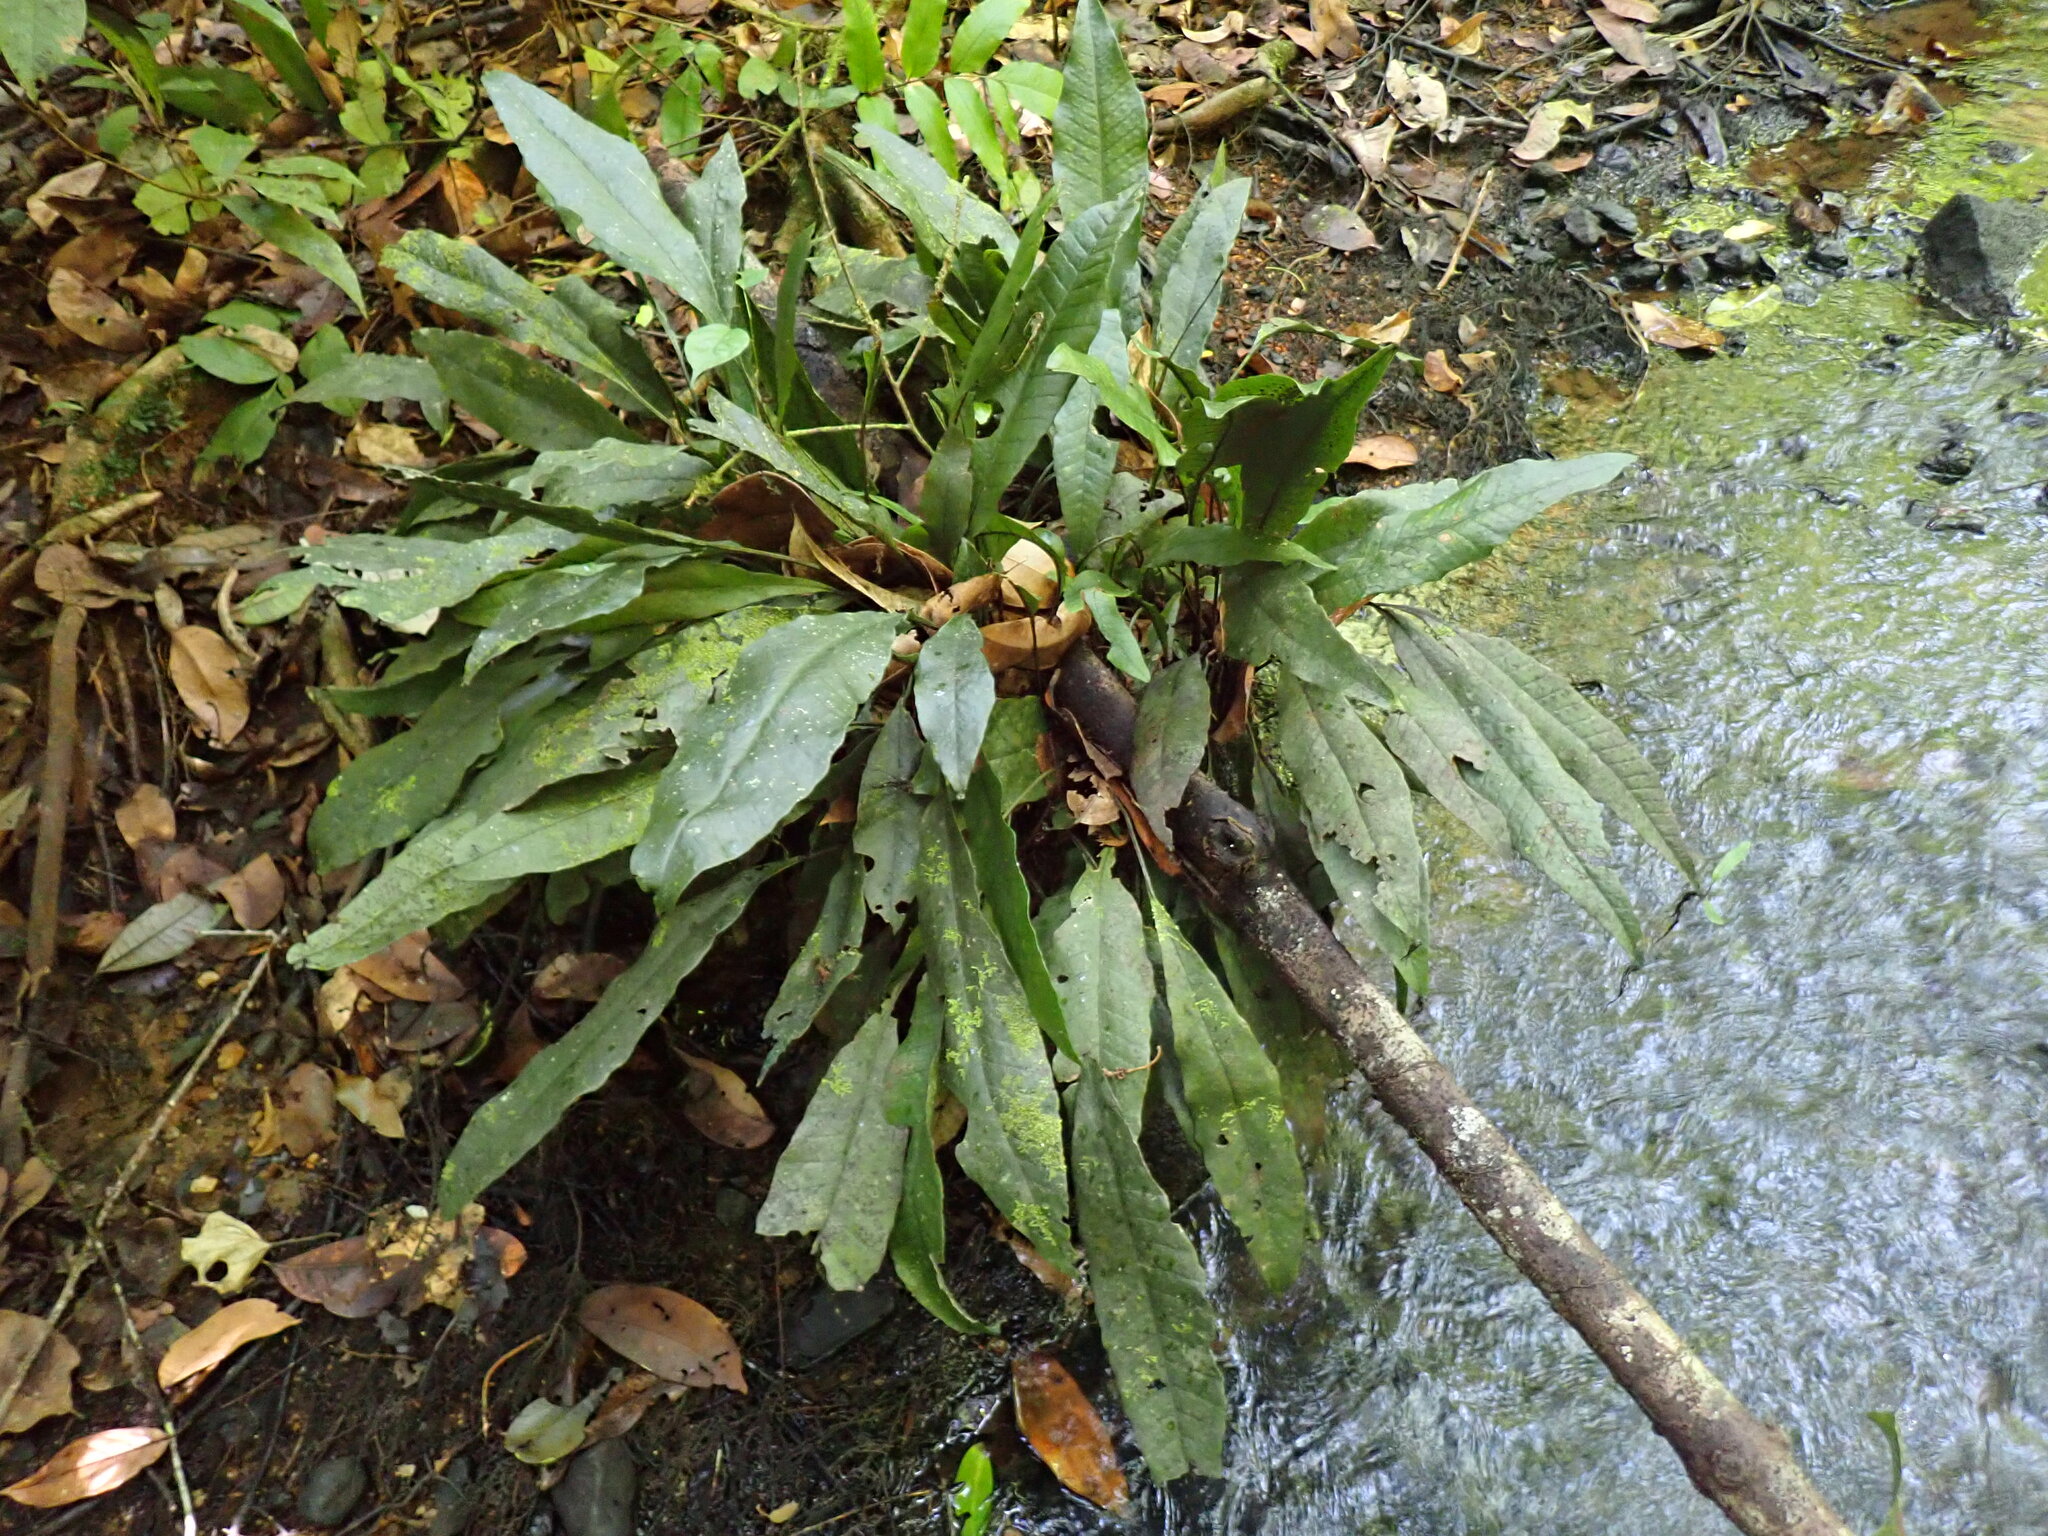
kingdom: Plantae
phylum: Tracheophyta
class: Polypodiopsida
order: Polypodiales
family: Lomariopsidaceae
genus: Dracoglossum
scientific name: Dracoglossum sinuatum
